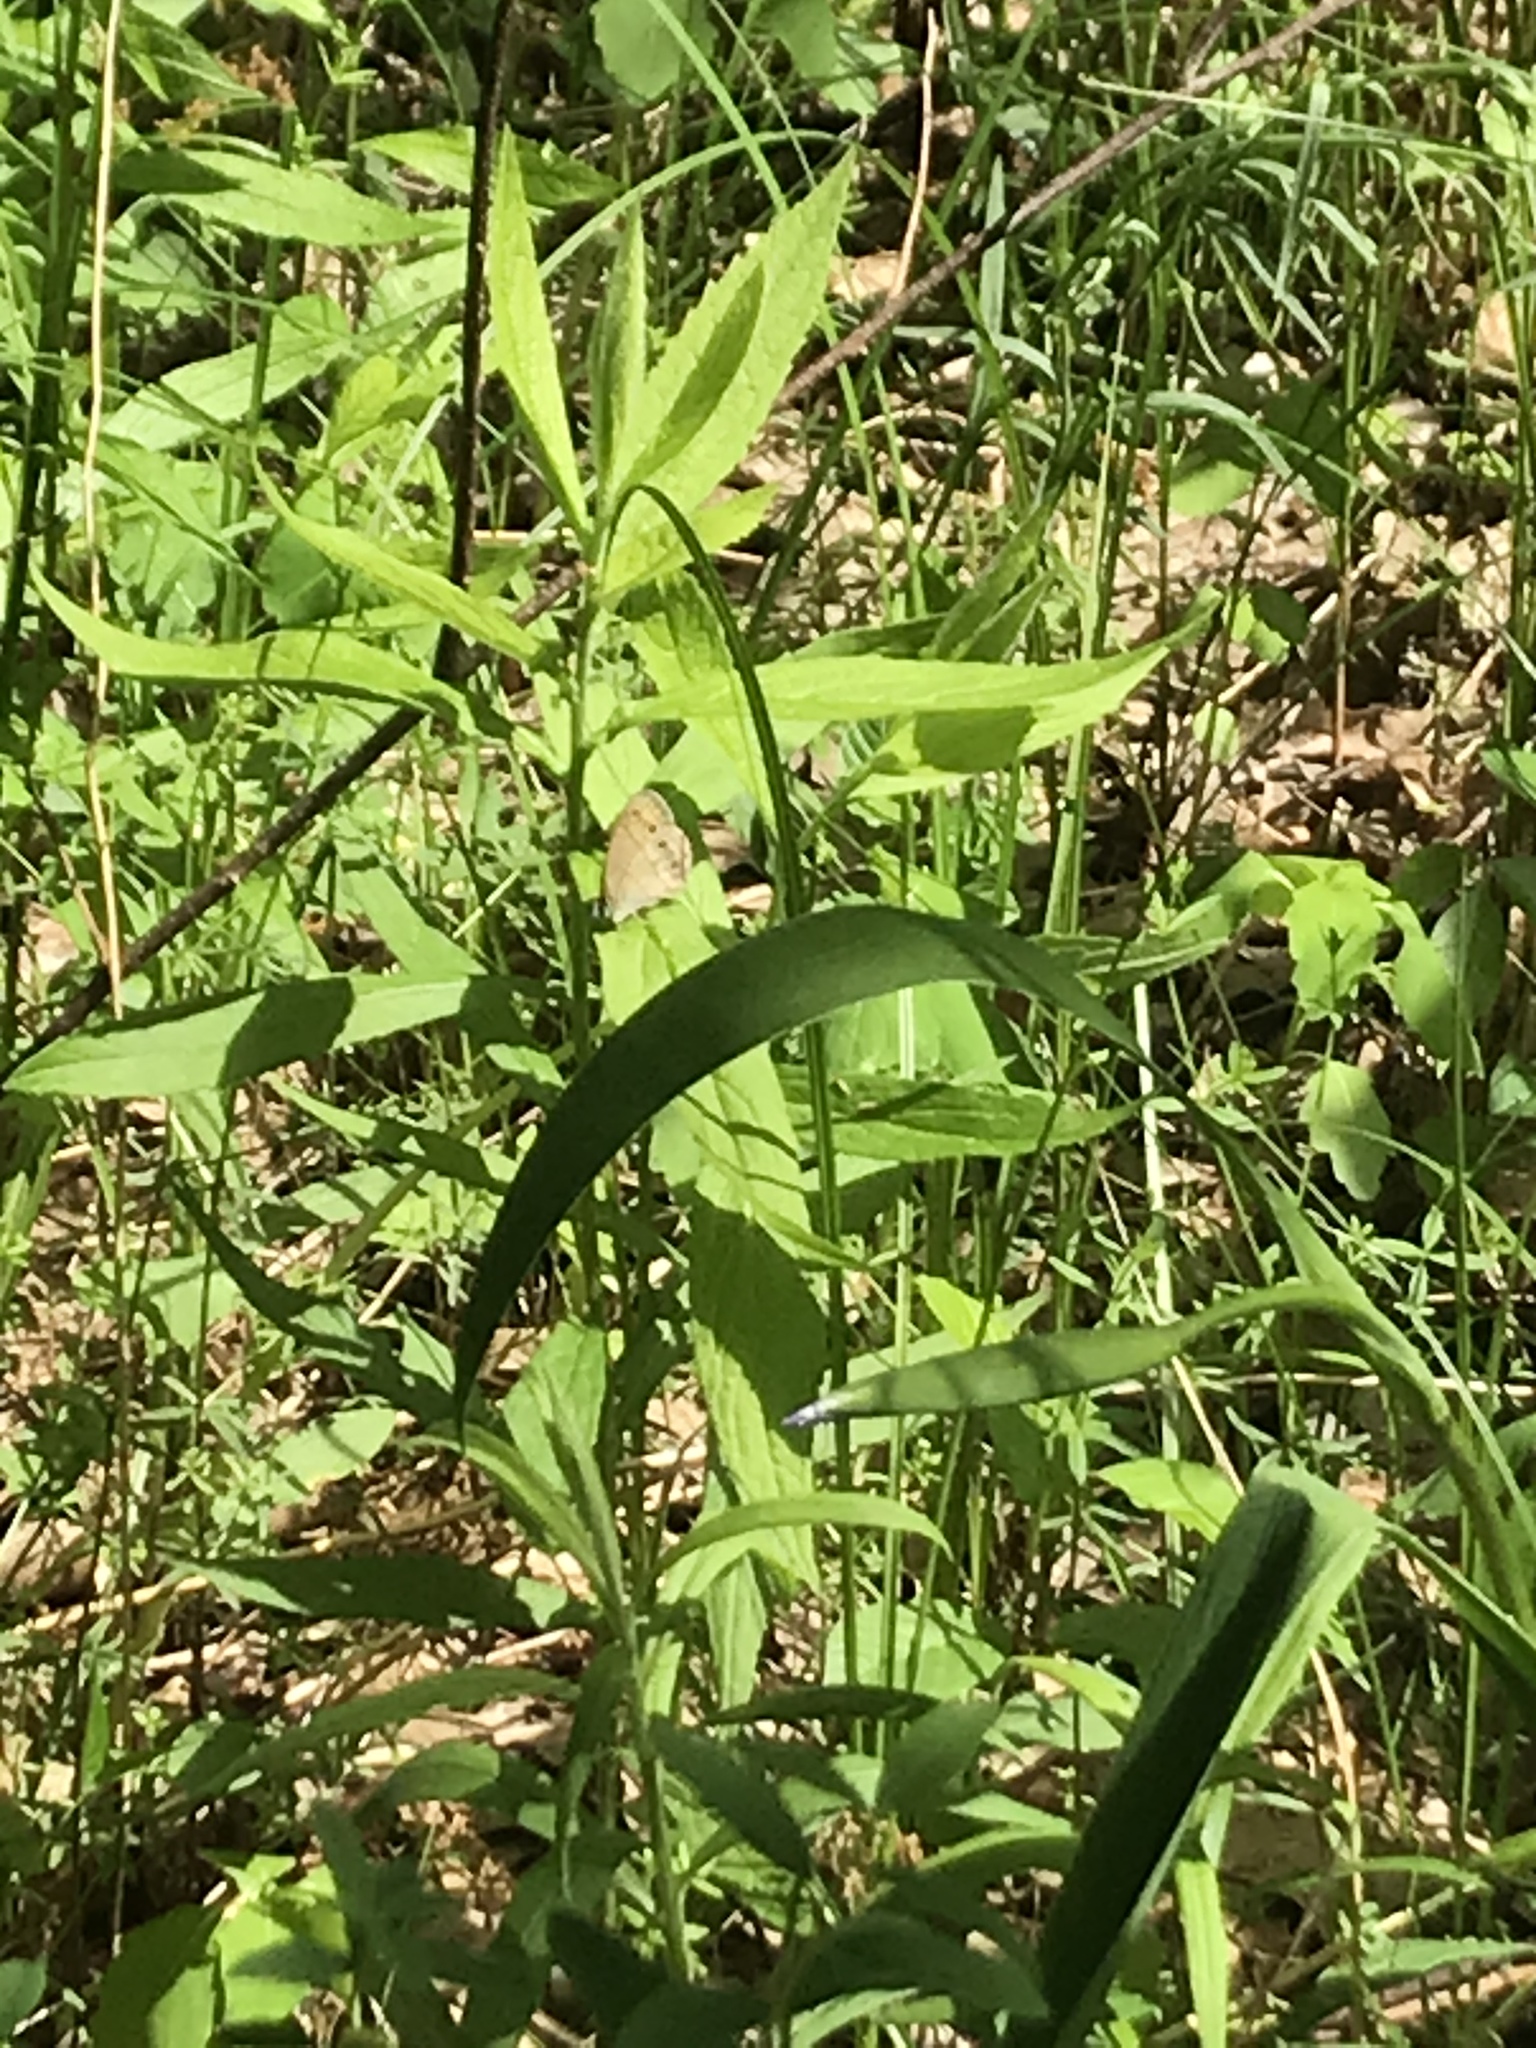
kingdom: Animalia
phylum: Arthropoda
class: Insecta
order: Lepidoptera
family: Nymphalidae
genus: Euptychia
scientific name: Euptychia cymela
